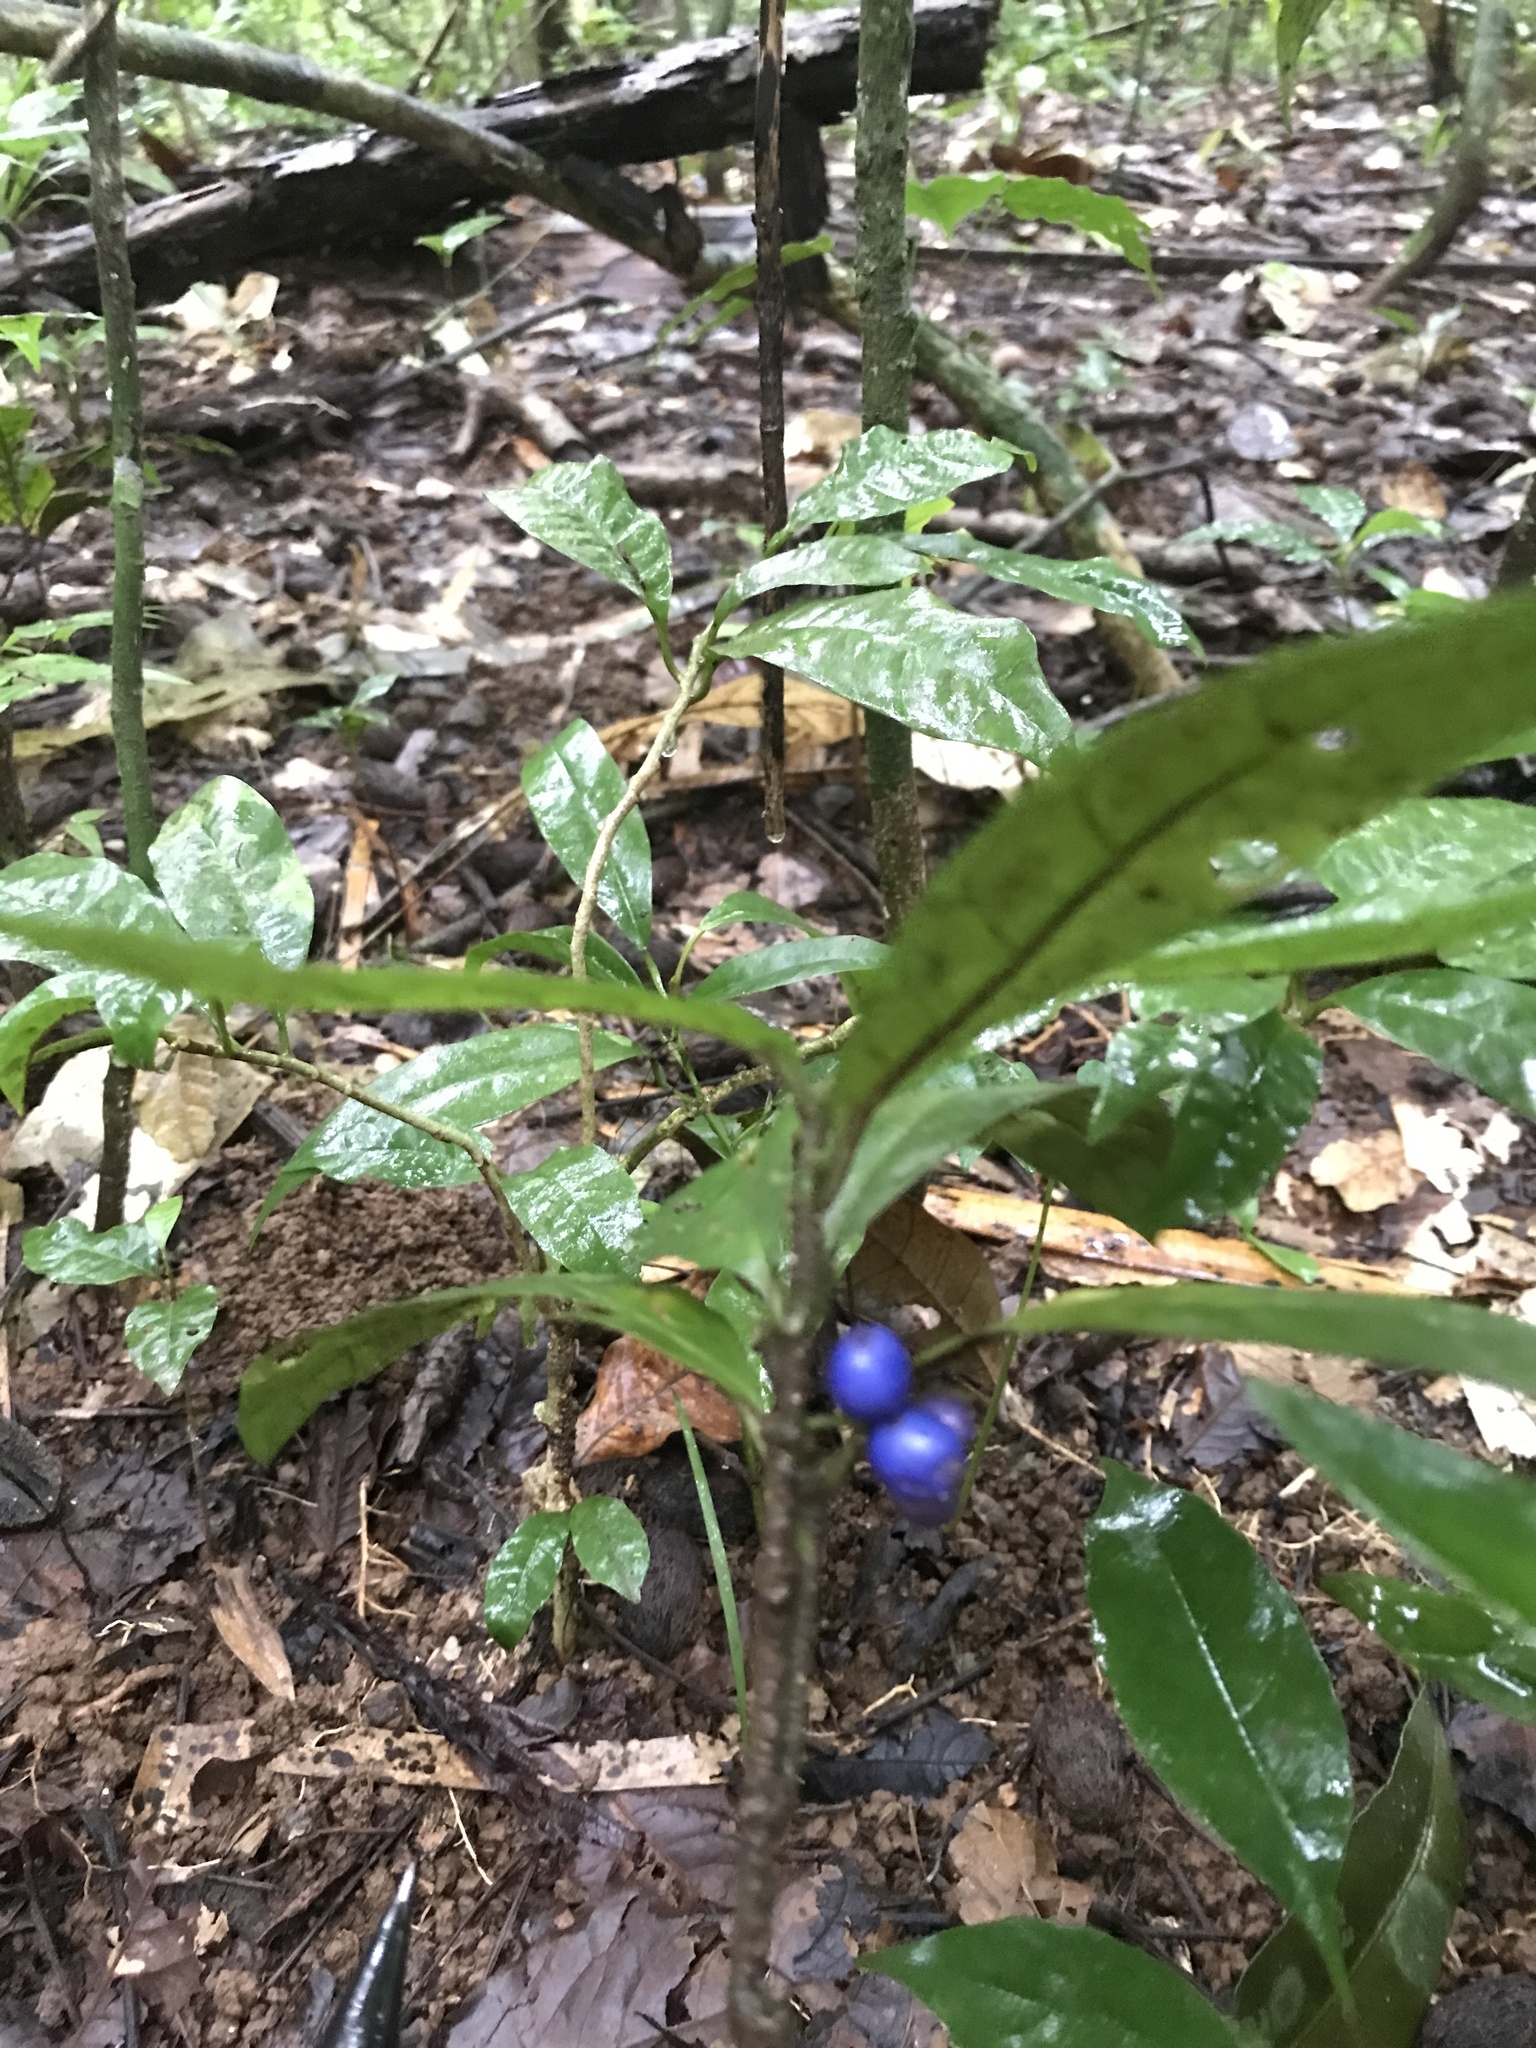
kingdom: Plantae
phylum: Tracheophyta
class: Magnoliopsida
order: Gentianales
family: Rubiaceae
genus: Ronabea
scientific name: Ronabea emetica
